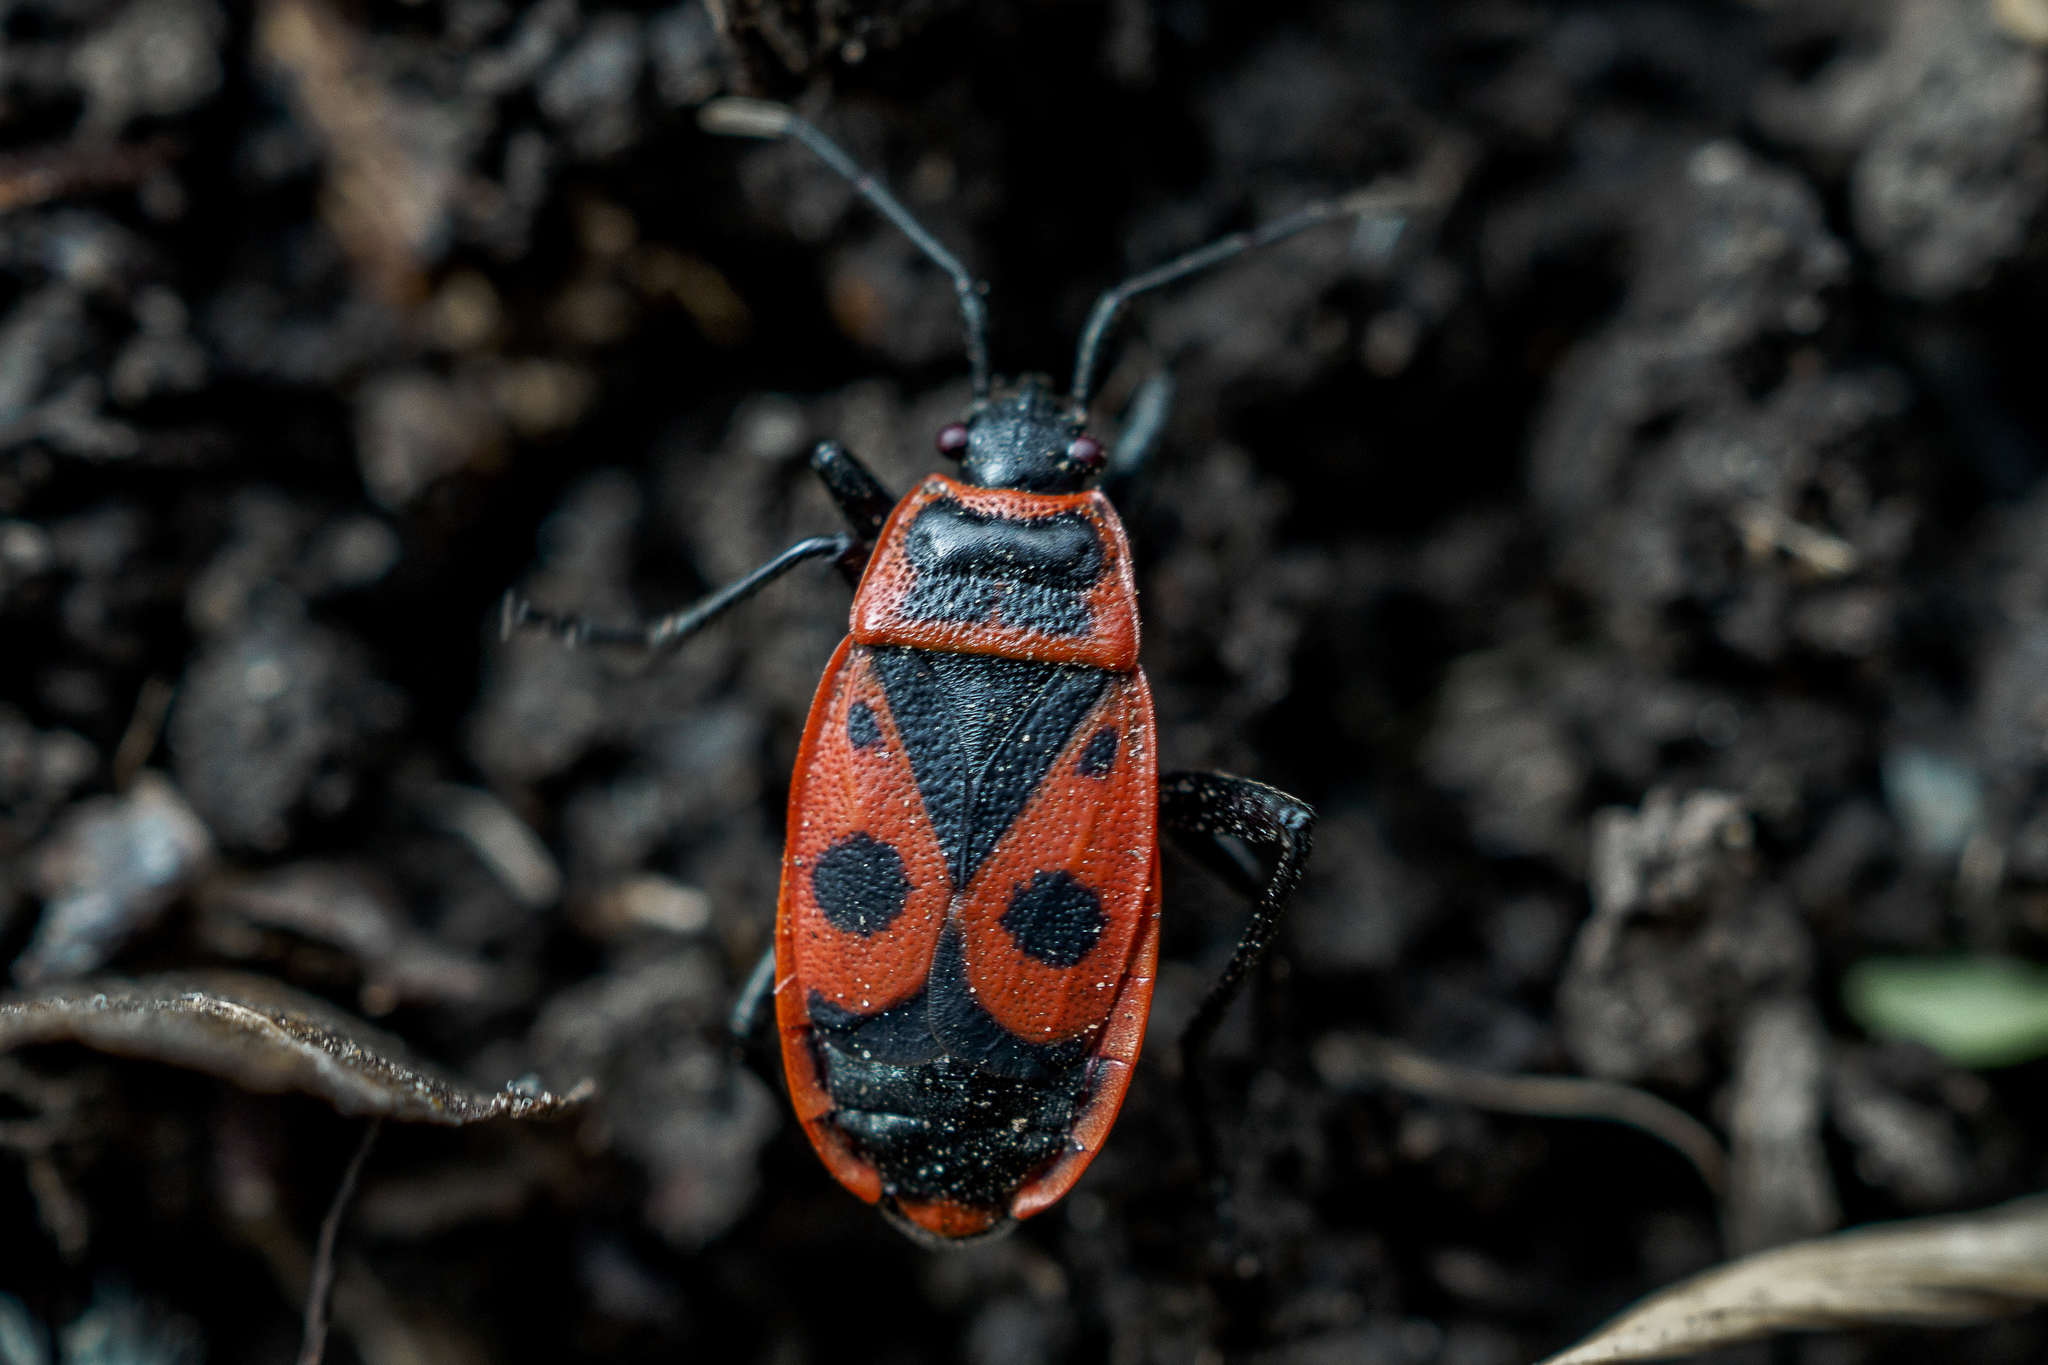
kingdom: Animalia
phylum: Arthropoda
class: Insecta
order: Hemiptera
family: Pyrrhocoridae
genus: Pyrrhocoris
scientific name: Pyrrhocoris apterus
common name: Firebug
